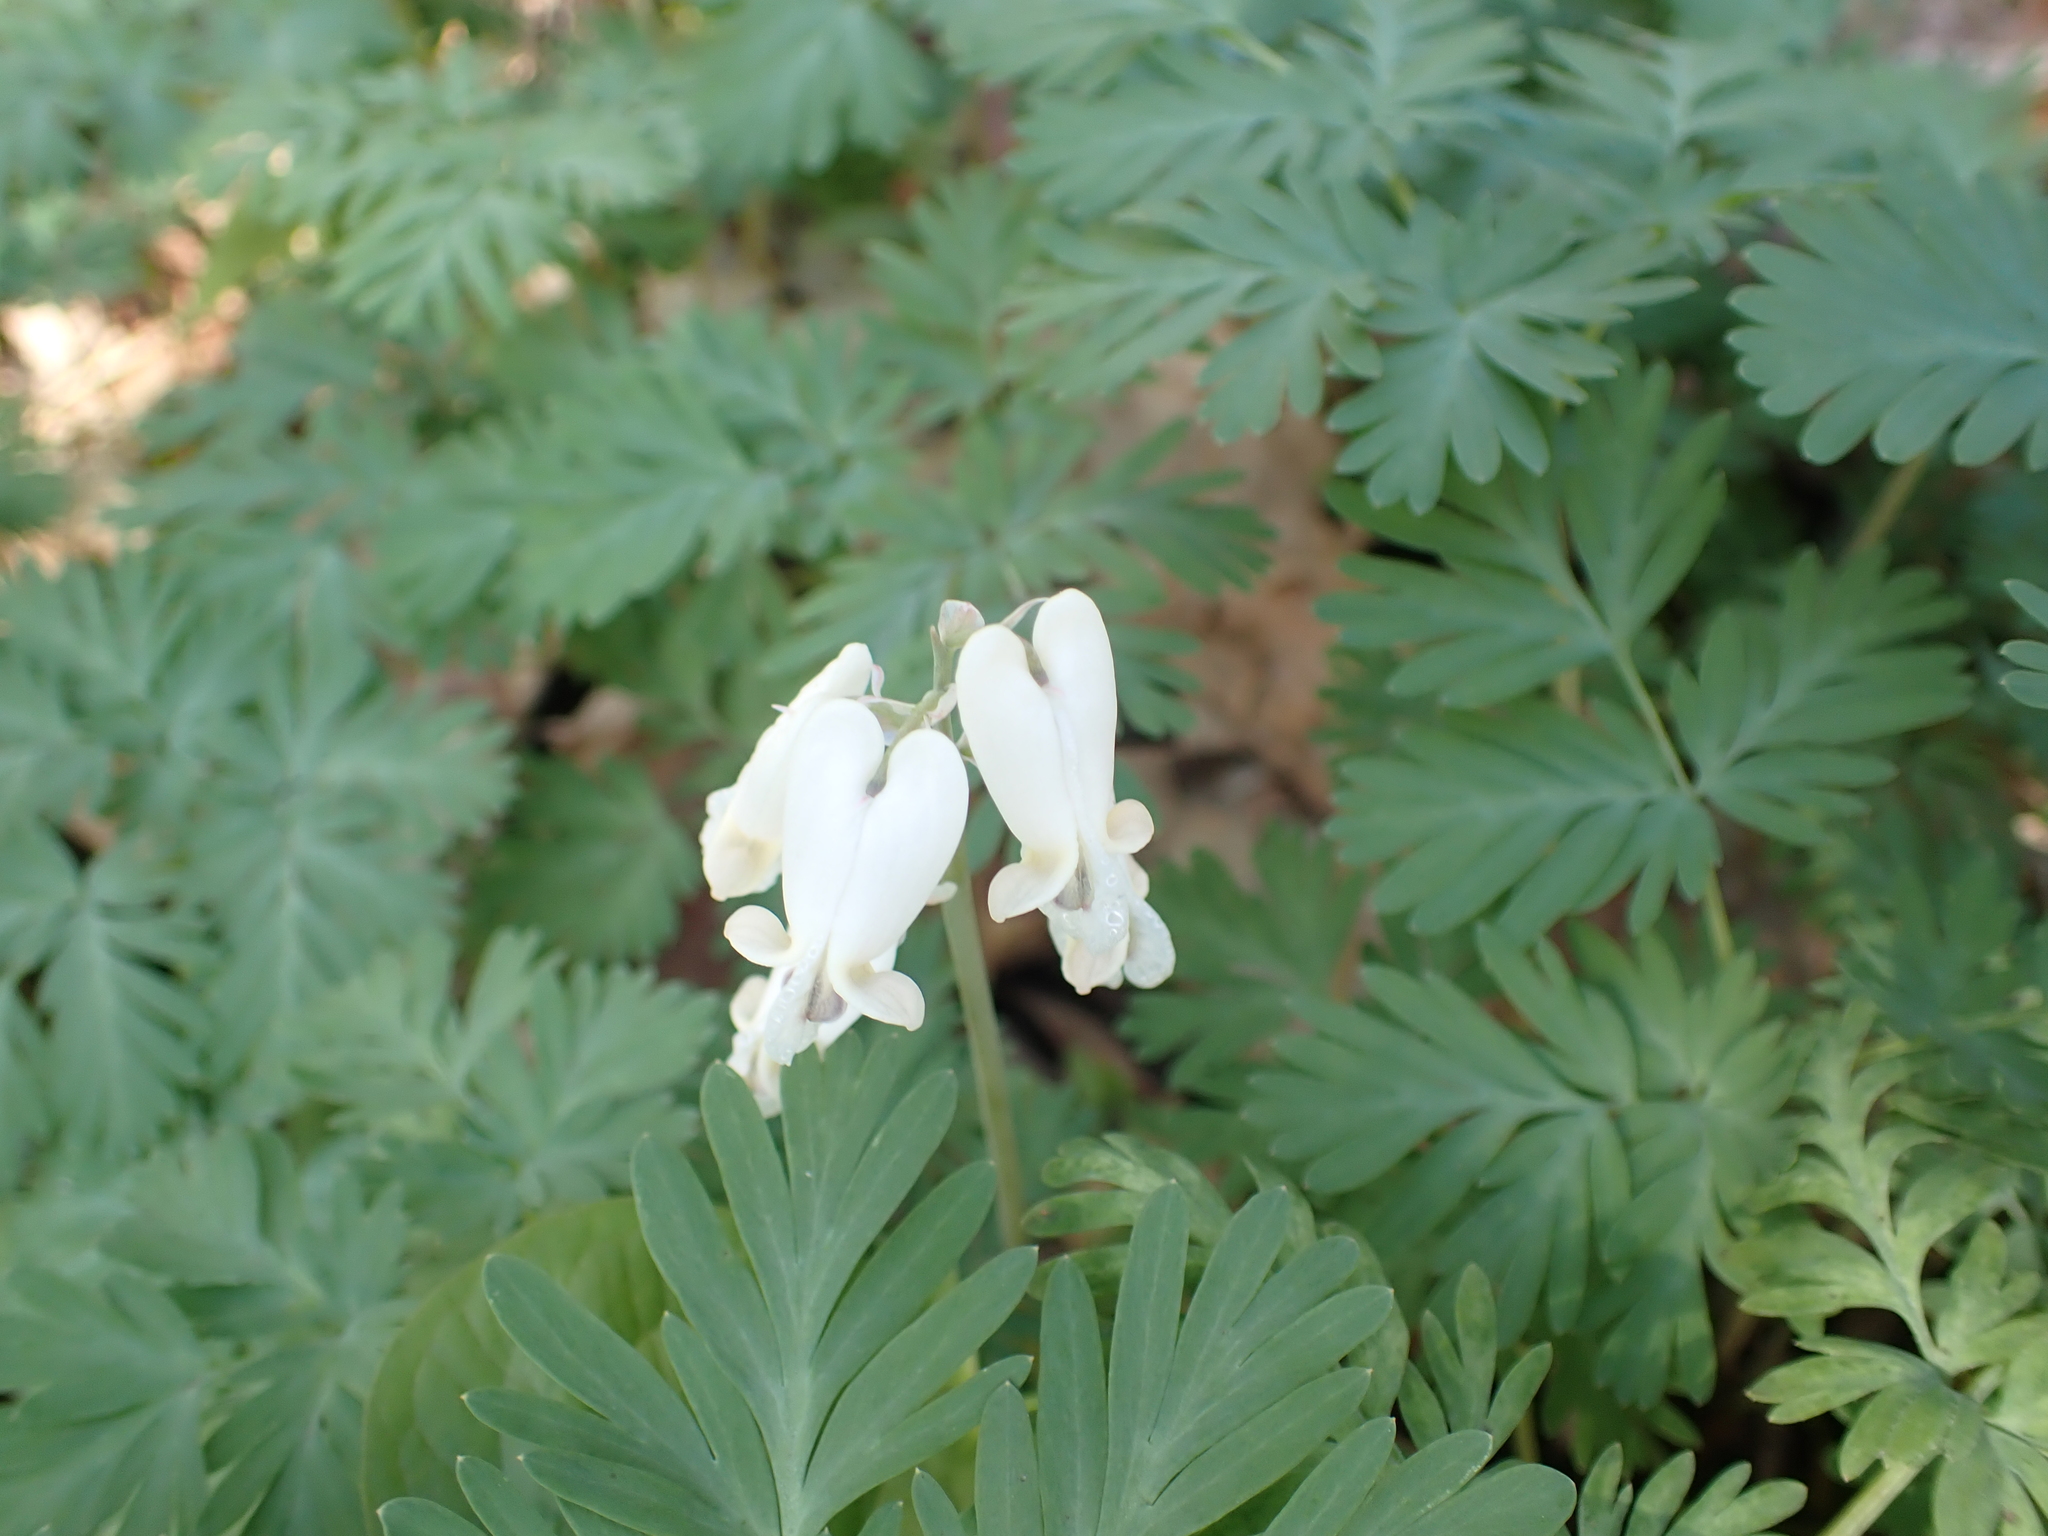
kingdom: Plantae
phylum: Tracheophyta
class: Magnoliopsida
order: Ranunculales
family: Papaveraceae
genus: Dicentra
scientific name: Dicentra canadensis
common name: Squirrel-corn
